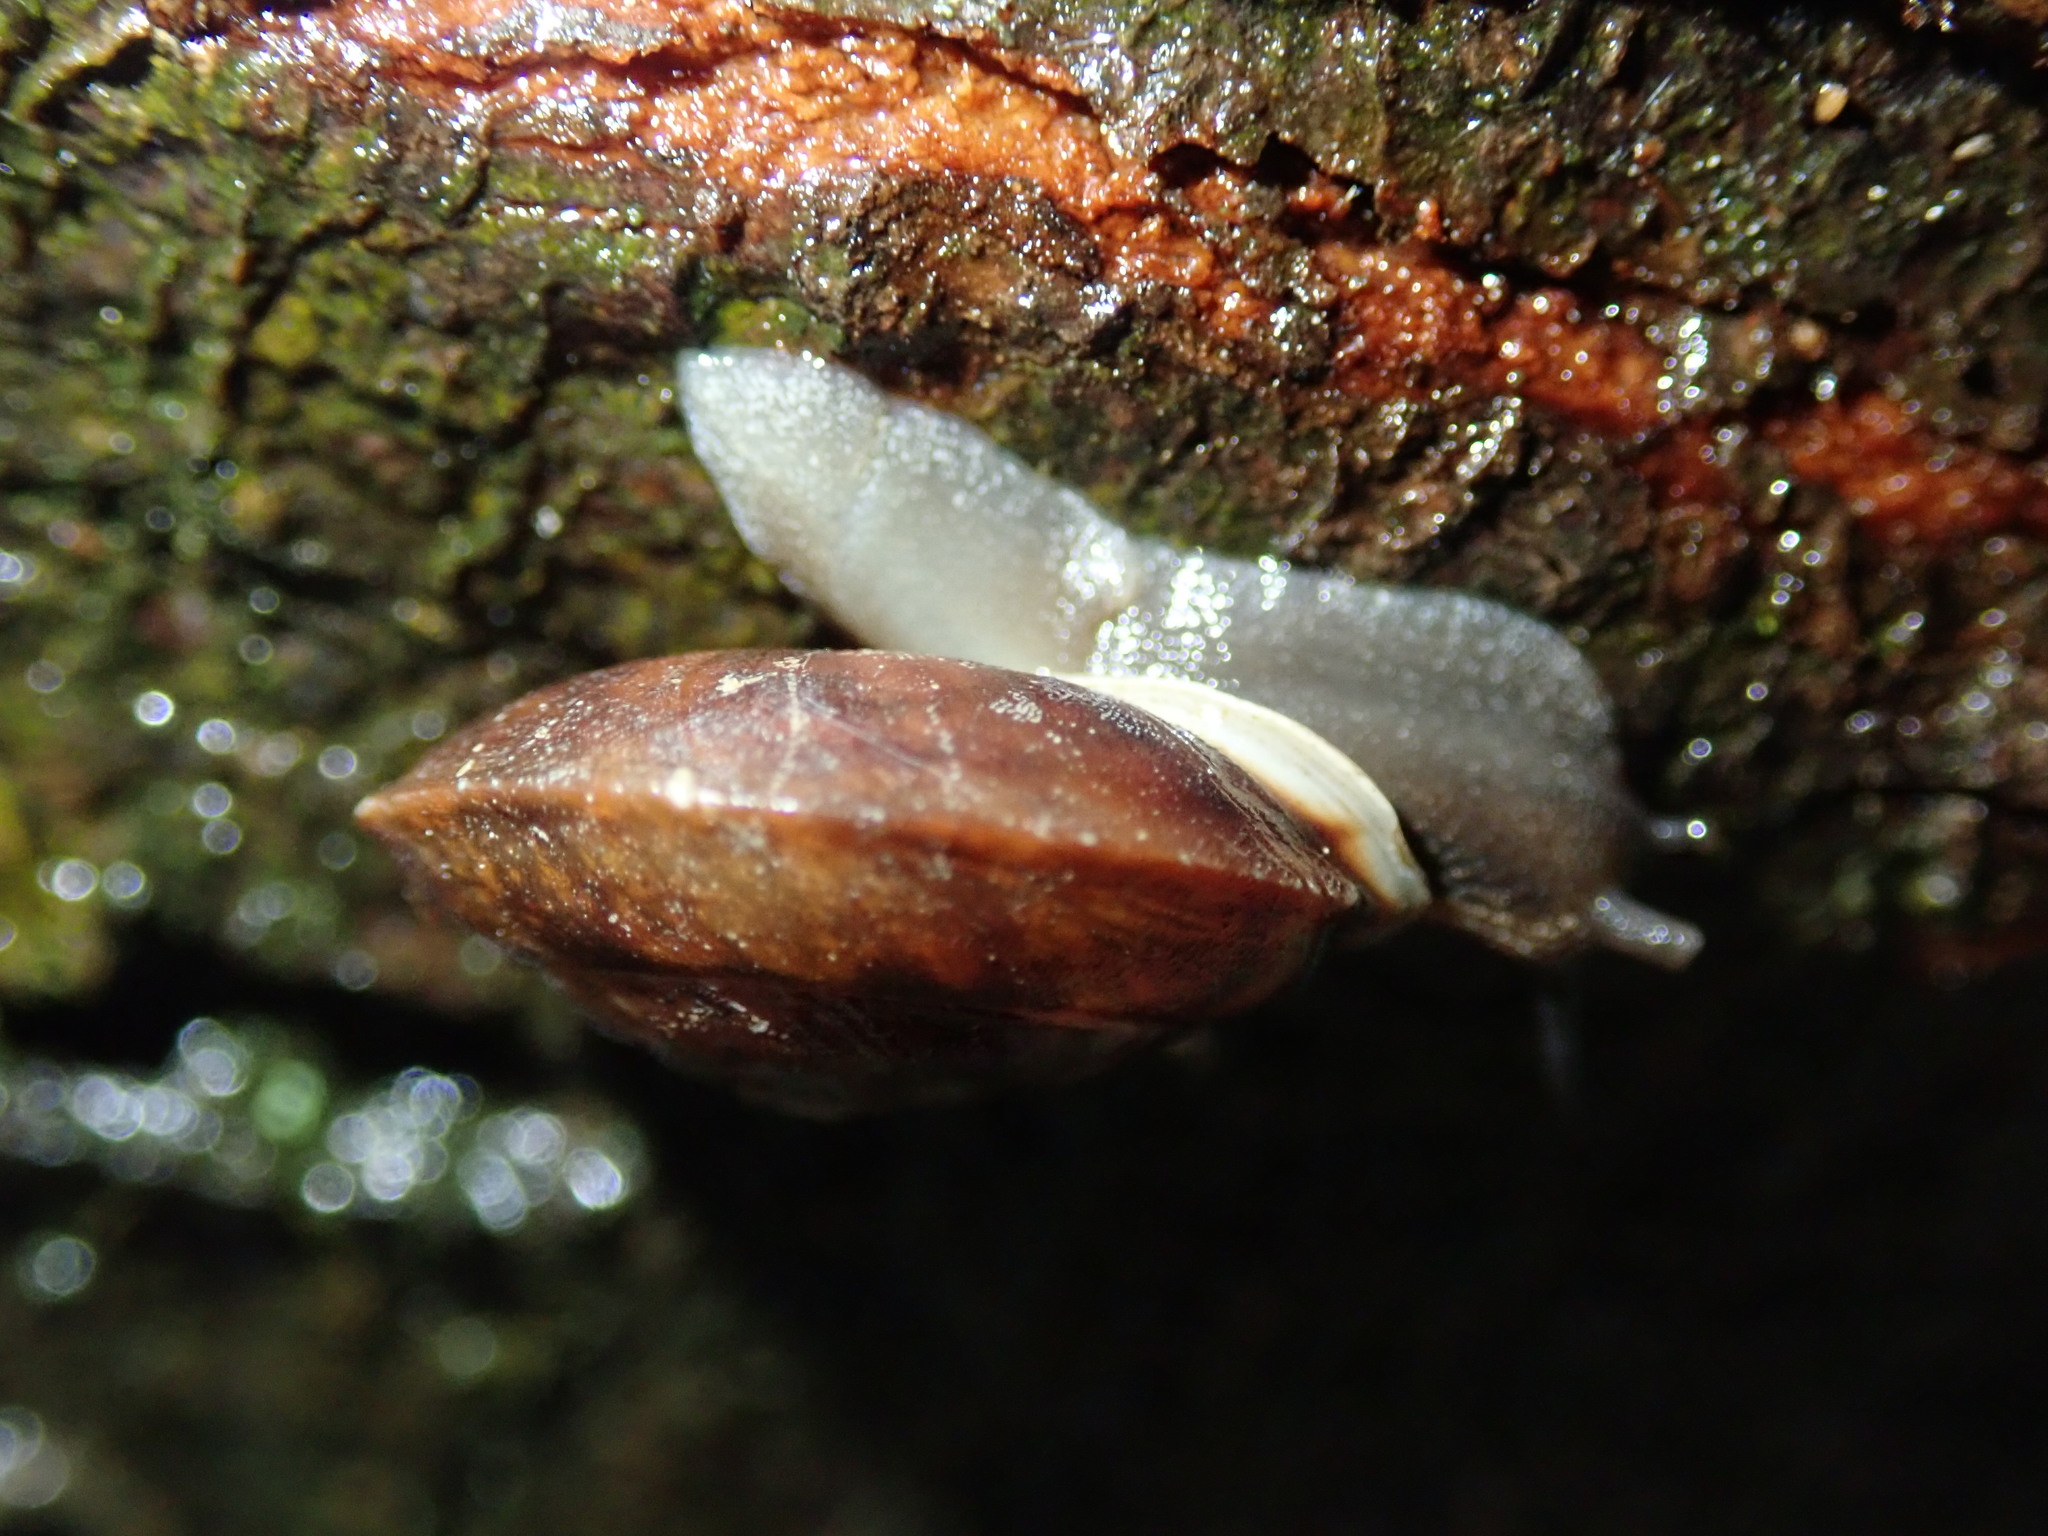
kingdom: Animalia
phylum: Mollusca
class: Gastropoda
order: Stylommatophora
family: Helicidae
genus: Helicigona
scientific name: Helicigona lapicida
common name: Lapidary snail
